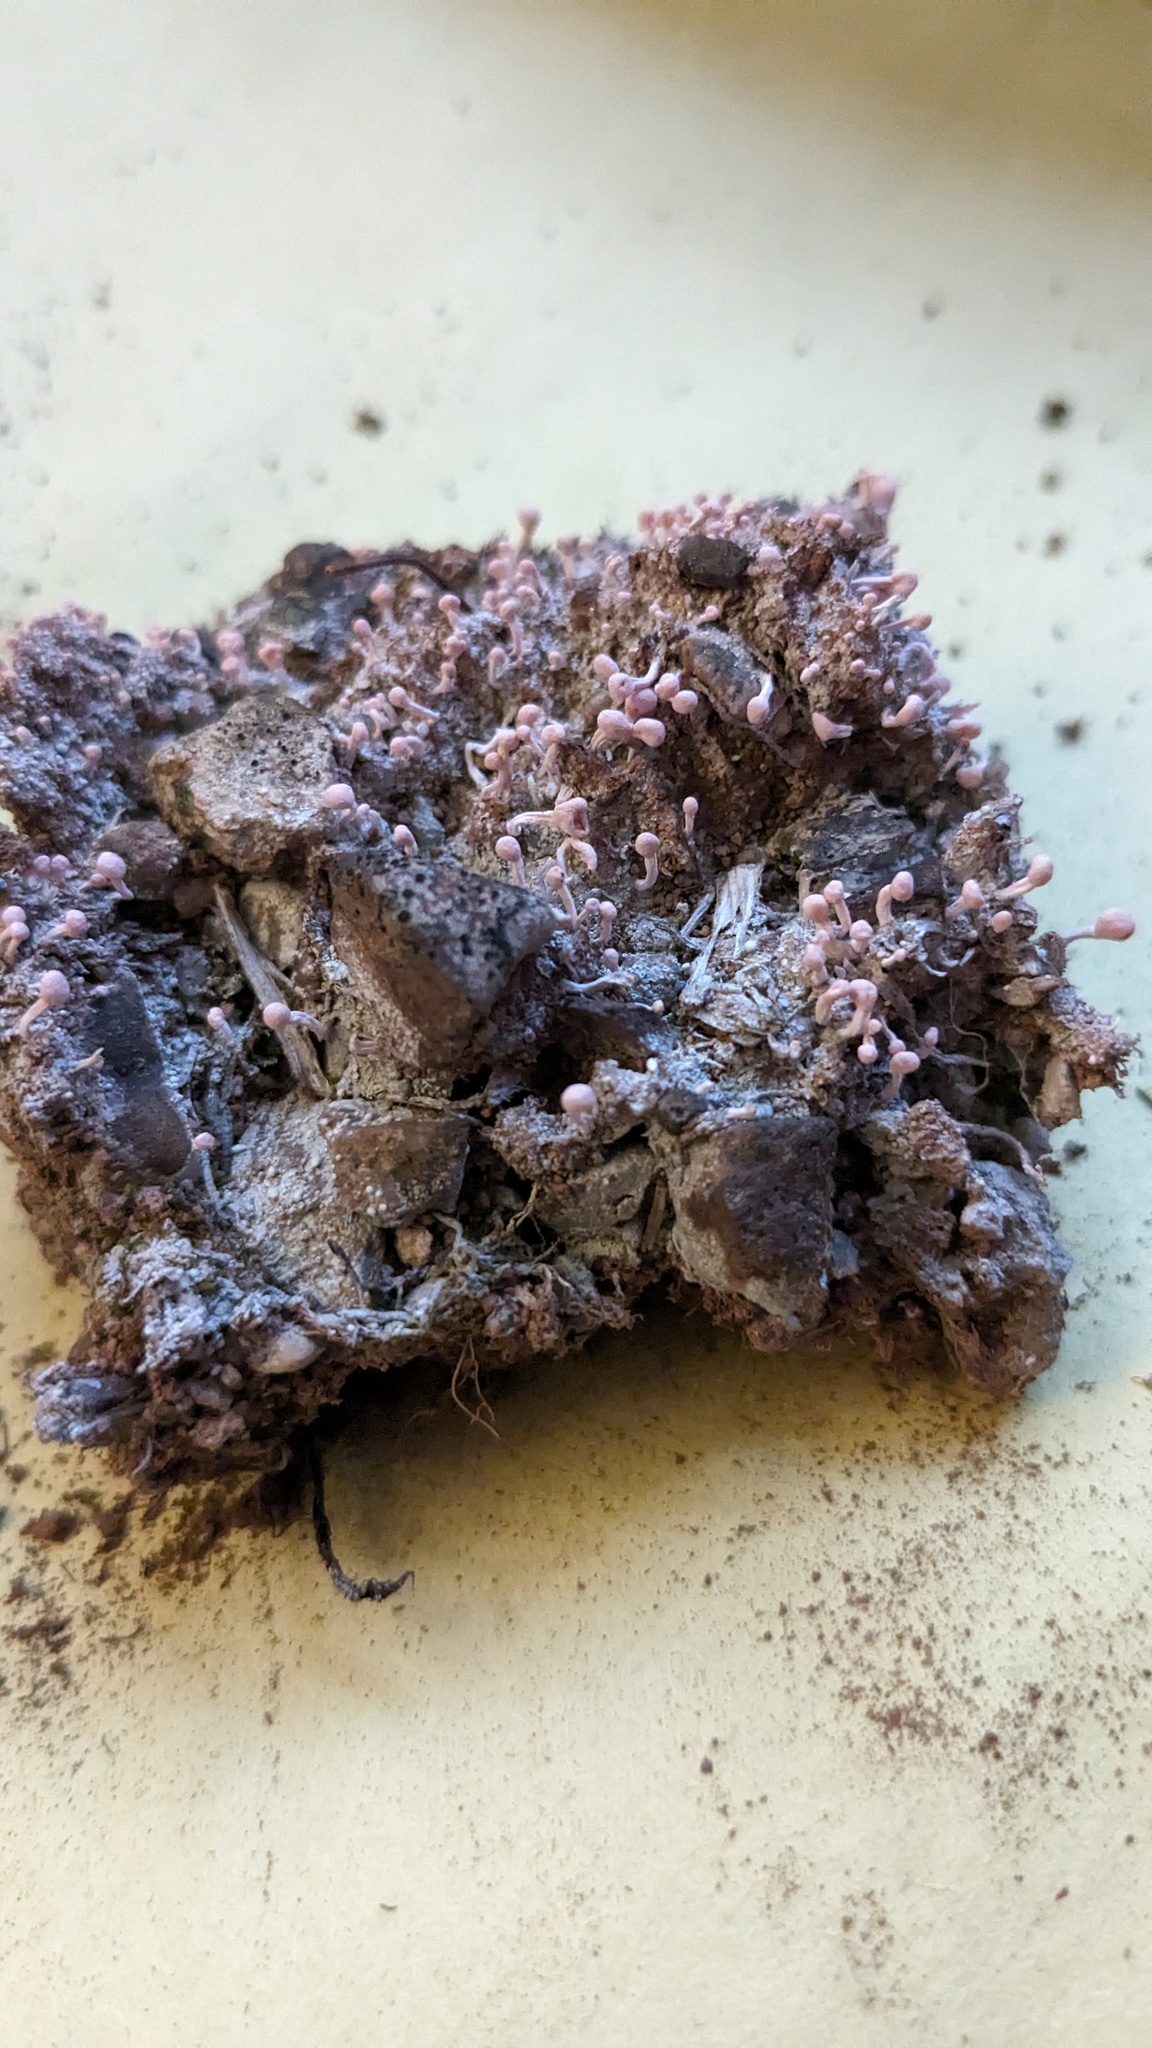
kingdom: Fungi
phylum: Ascomycota
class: Lecanoromycetes
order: Pertusariales
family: Icmadophilaceae
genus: Dibaeis
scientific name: Dibaeis baeomyces
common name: Pink earth lichen
